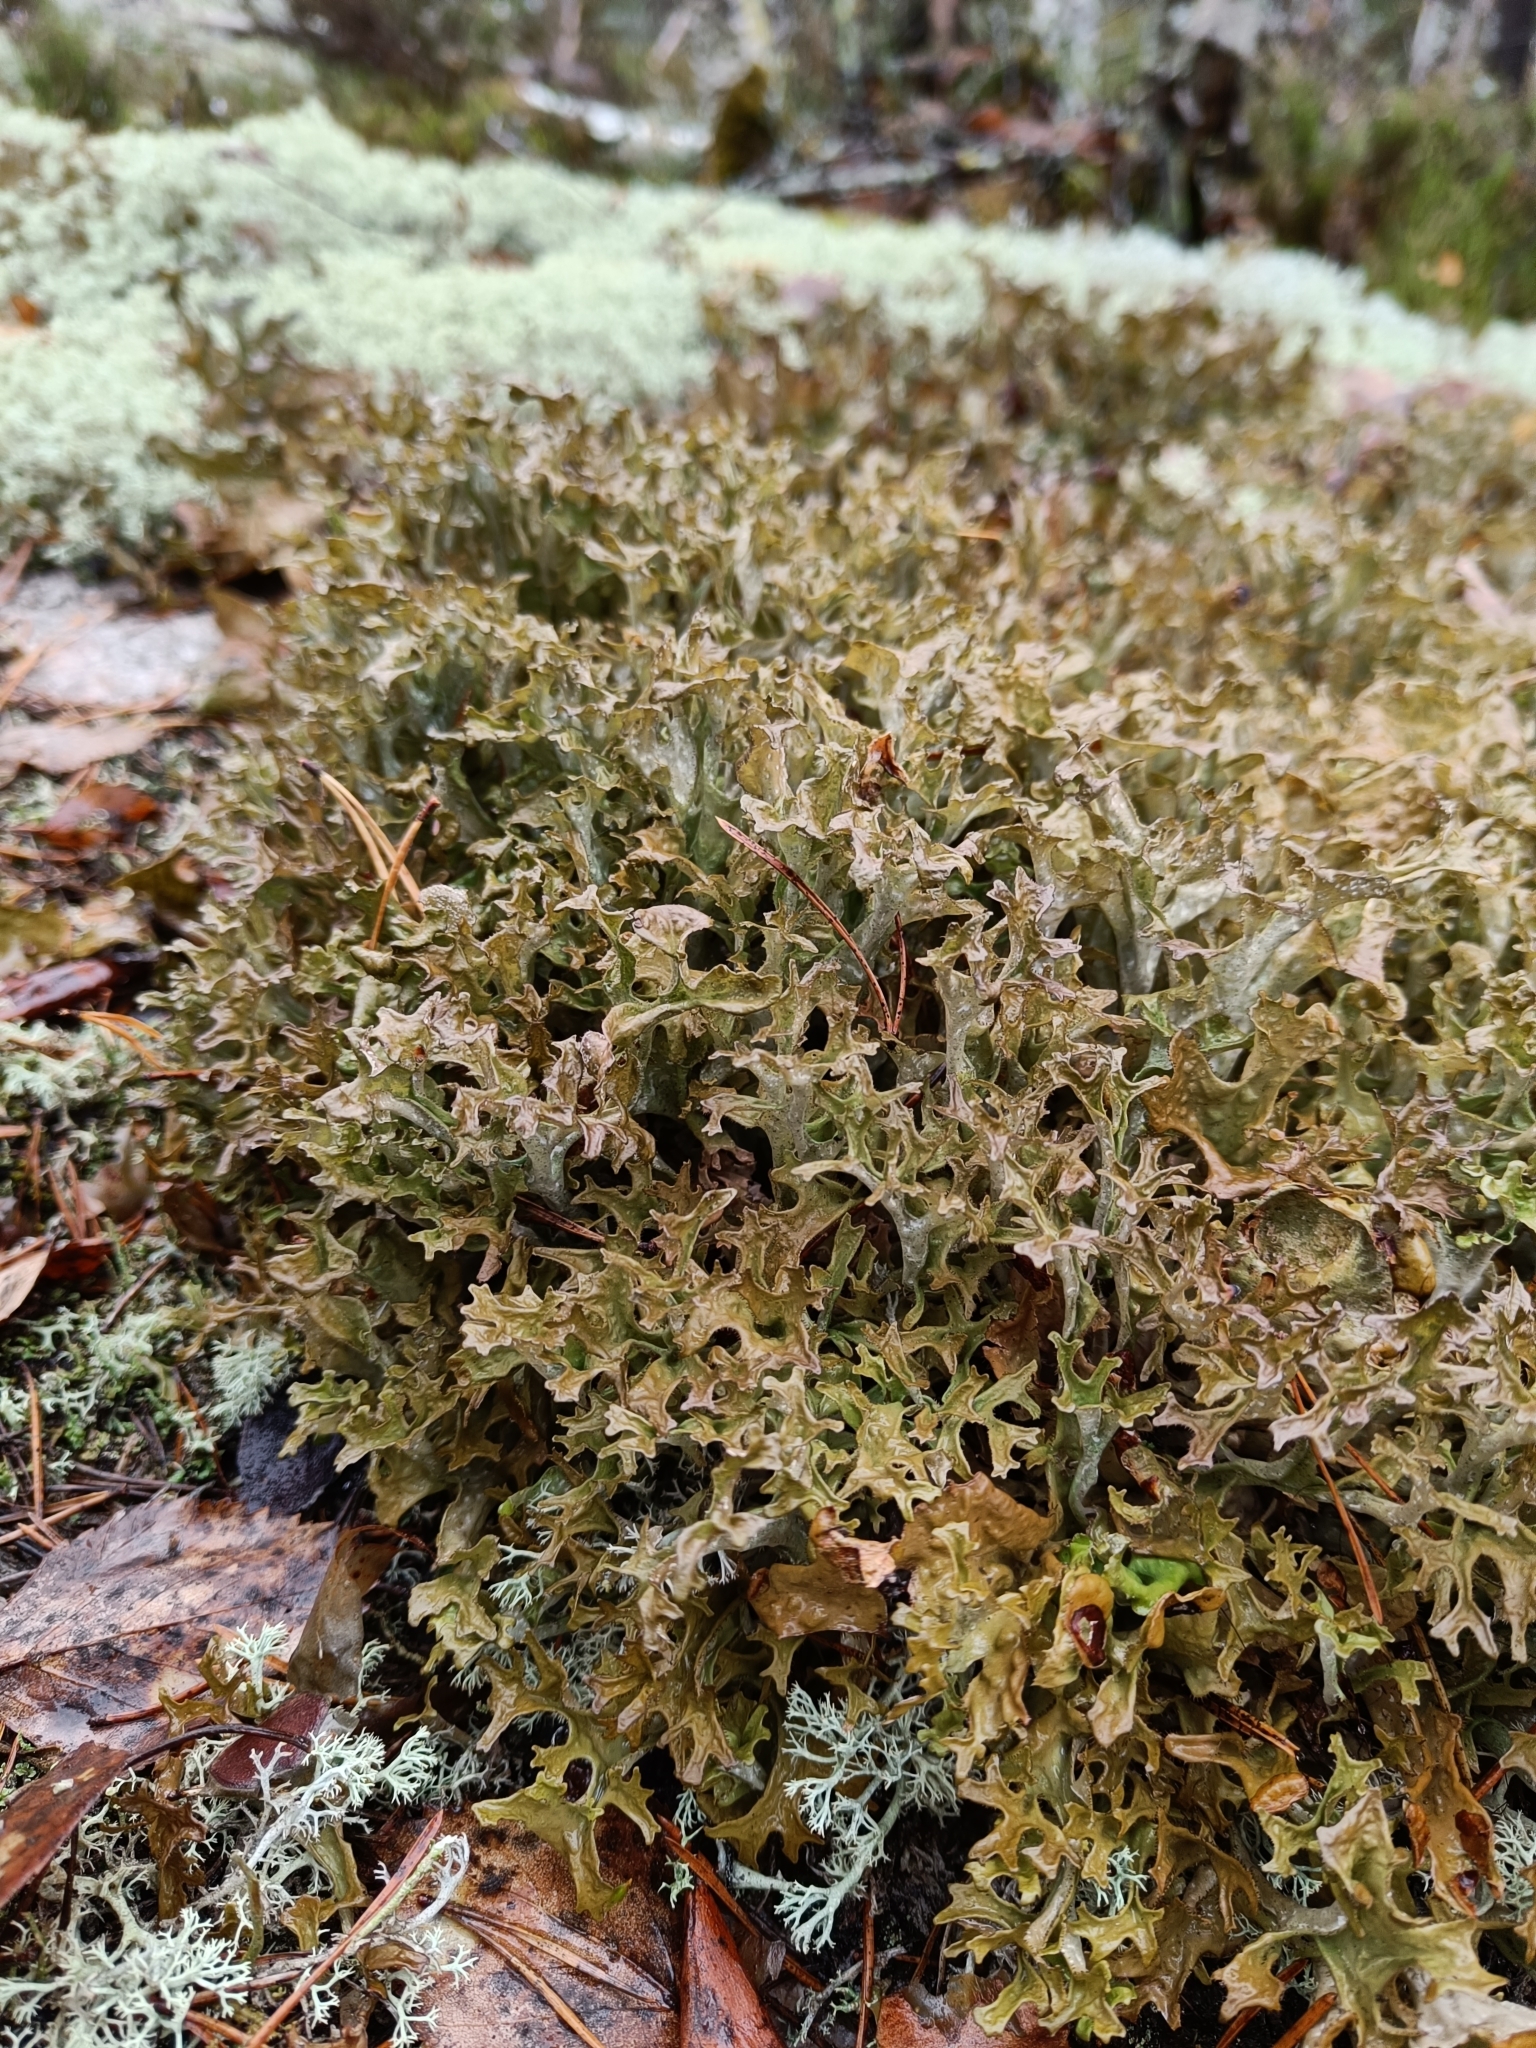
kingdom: Fungi
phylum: Ascomycota
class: Lecanoromycetes
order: Lecanorales
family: Parmeliaceae
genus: Cetraria
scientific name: Cetraria islandica
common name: Iceland lichen
